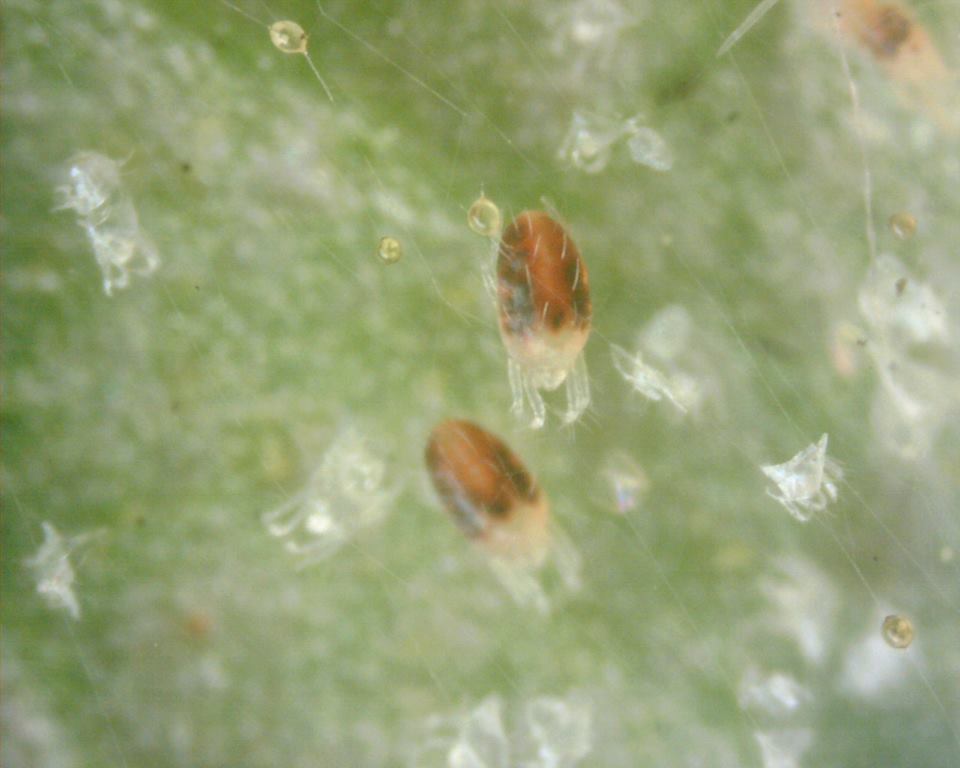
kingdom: Animalia
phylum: Arthropoda
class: Arachnida
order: Trombidiformes
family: Tetranychidae
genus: Tetranychus
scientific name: Tetranychus urticae
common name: Carmine spider mite
